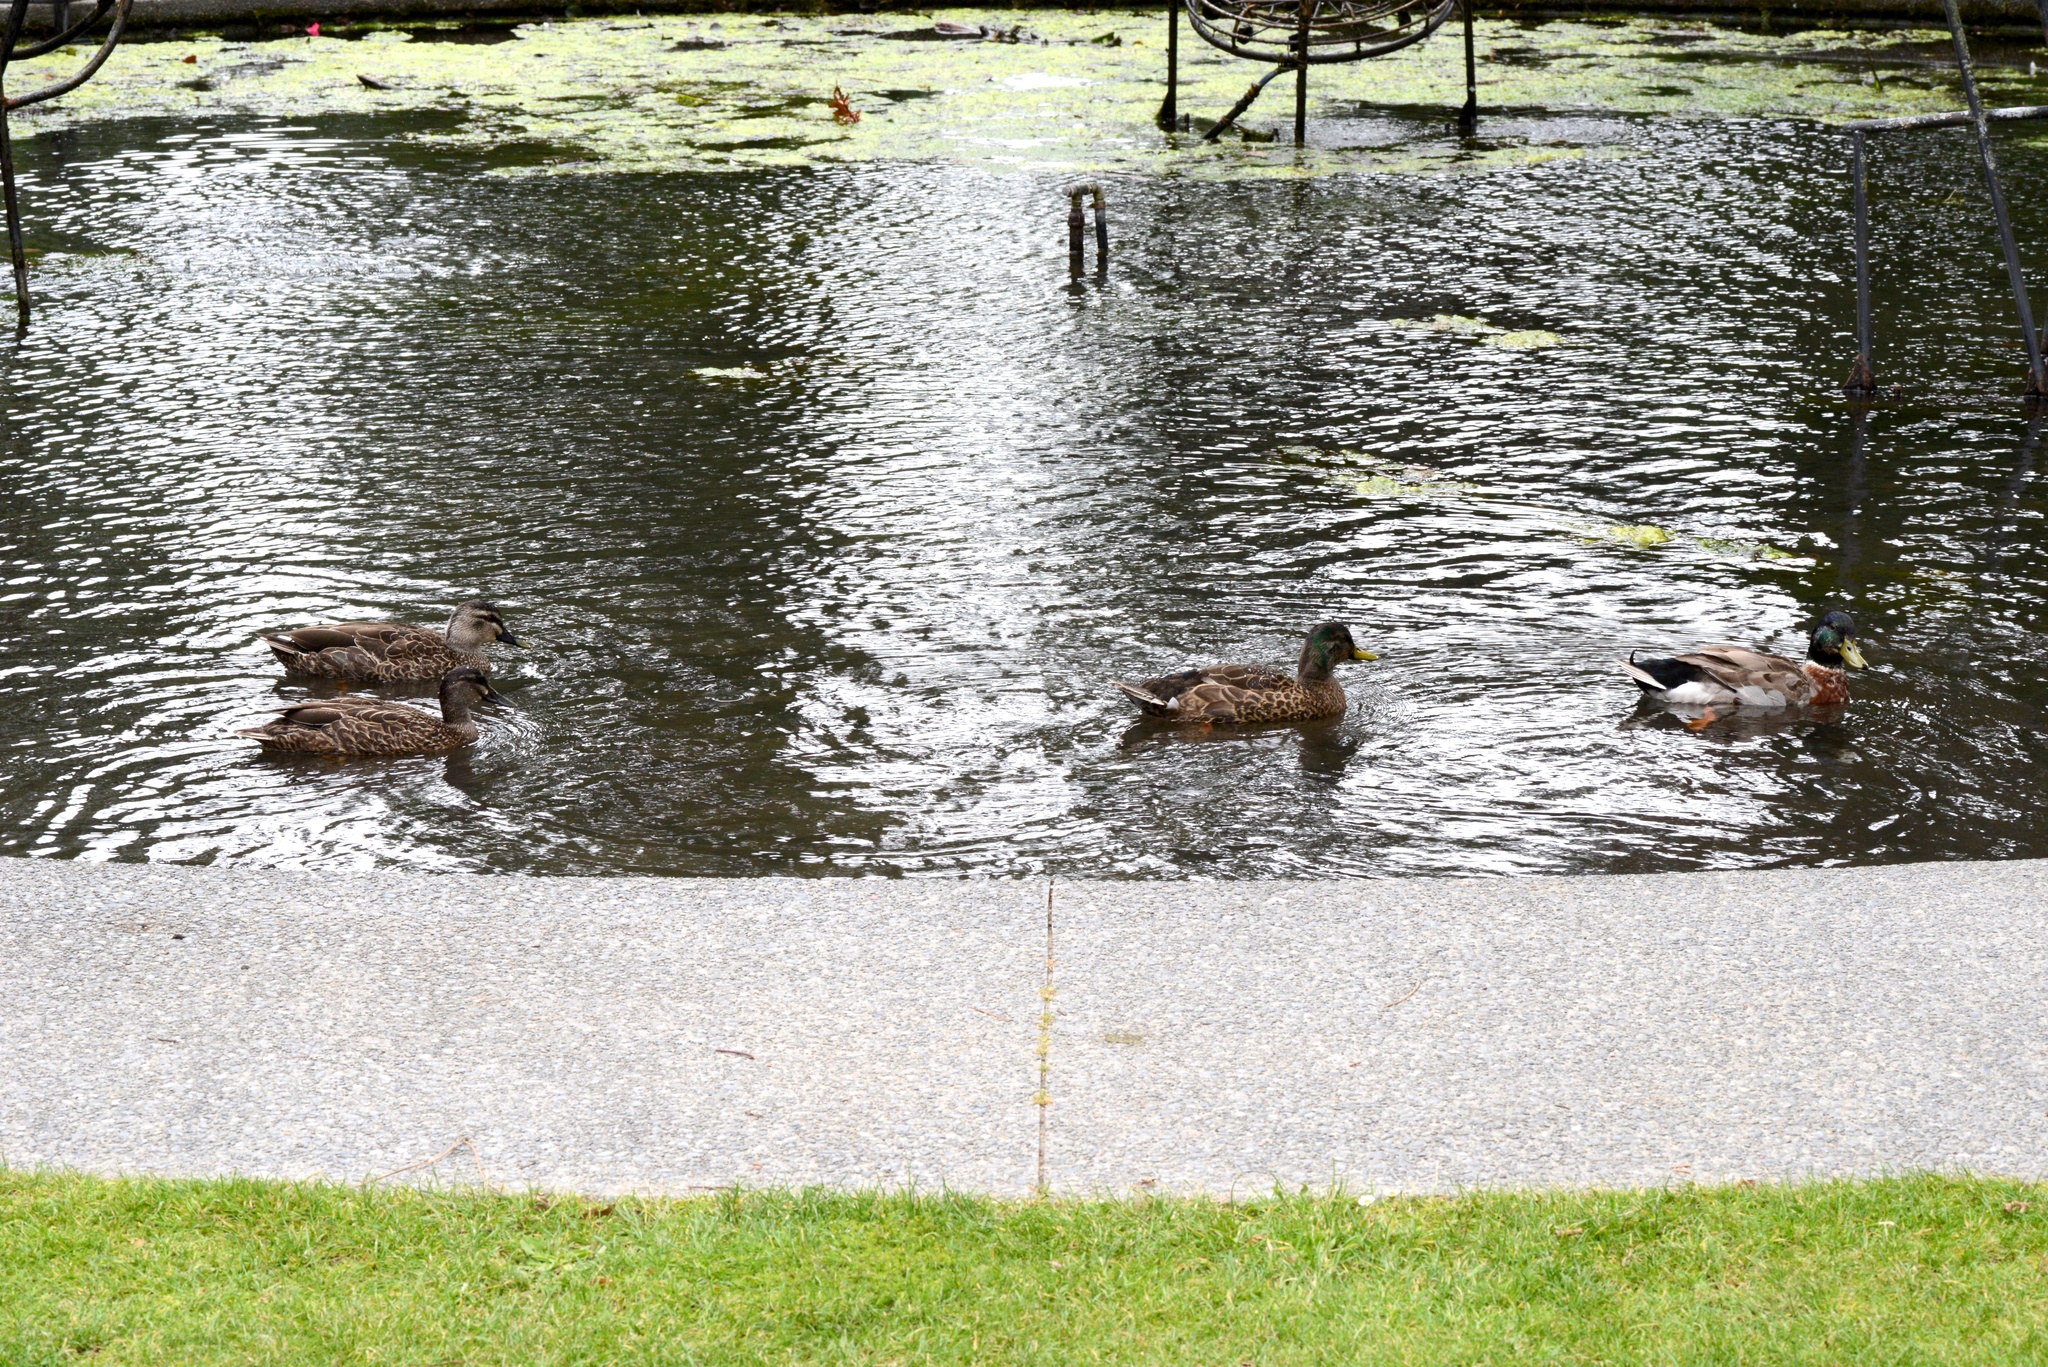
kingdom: Animalia
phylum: Chordata
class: Aves
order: Anseriformes
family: Anatidae
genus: Anas
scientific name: Anas
